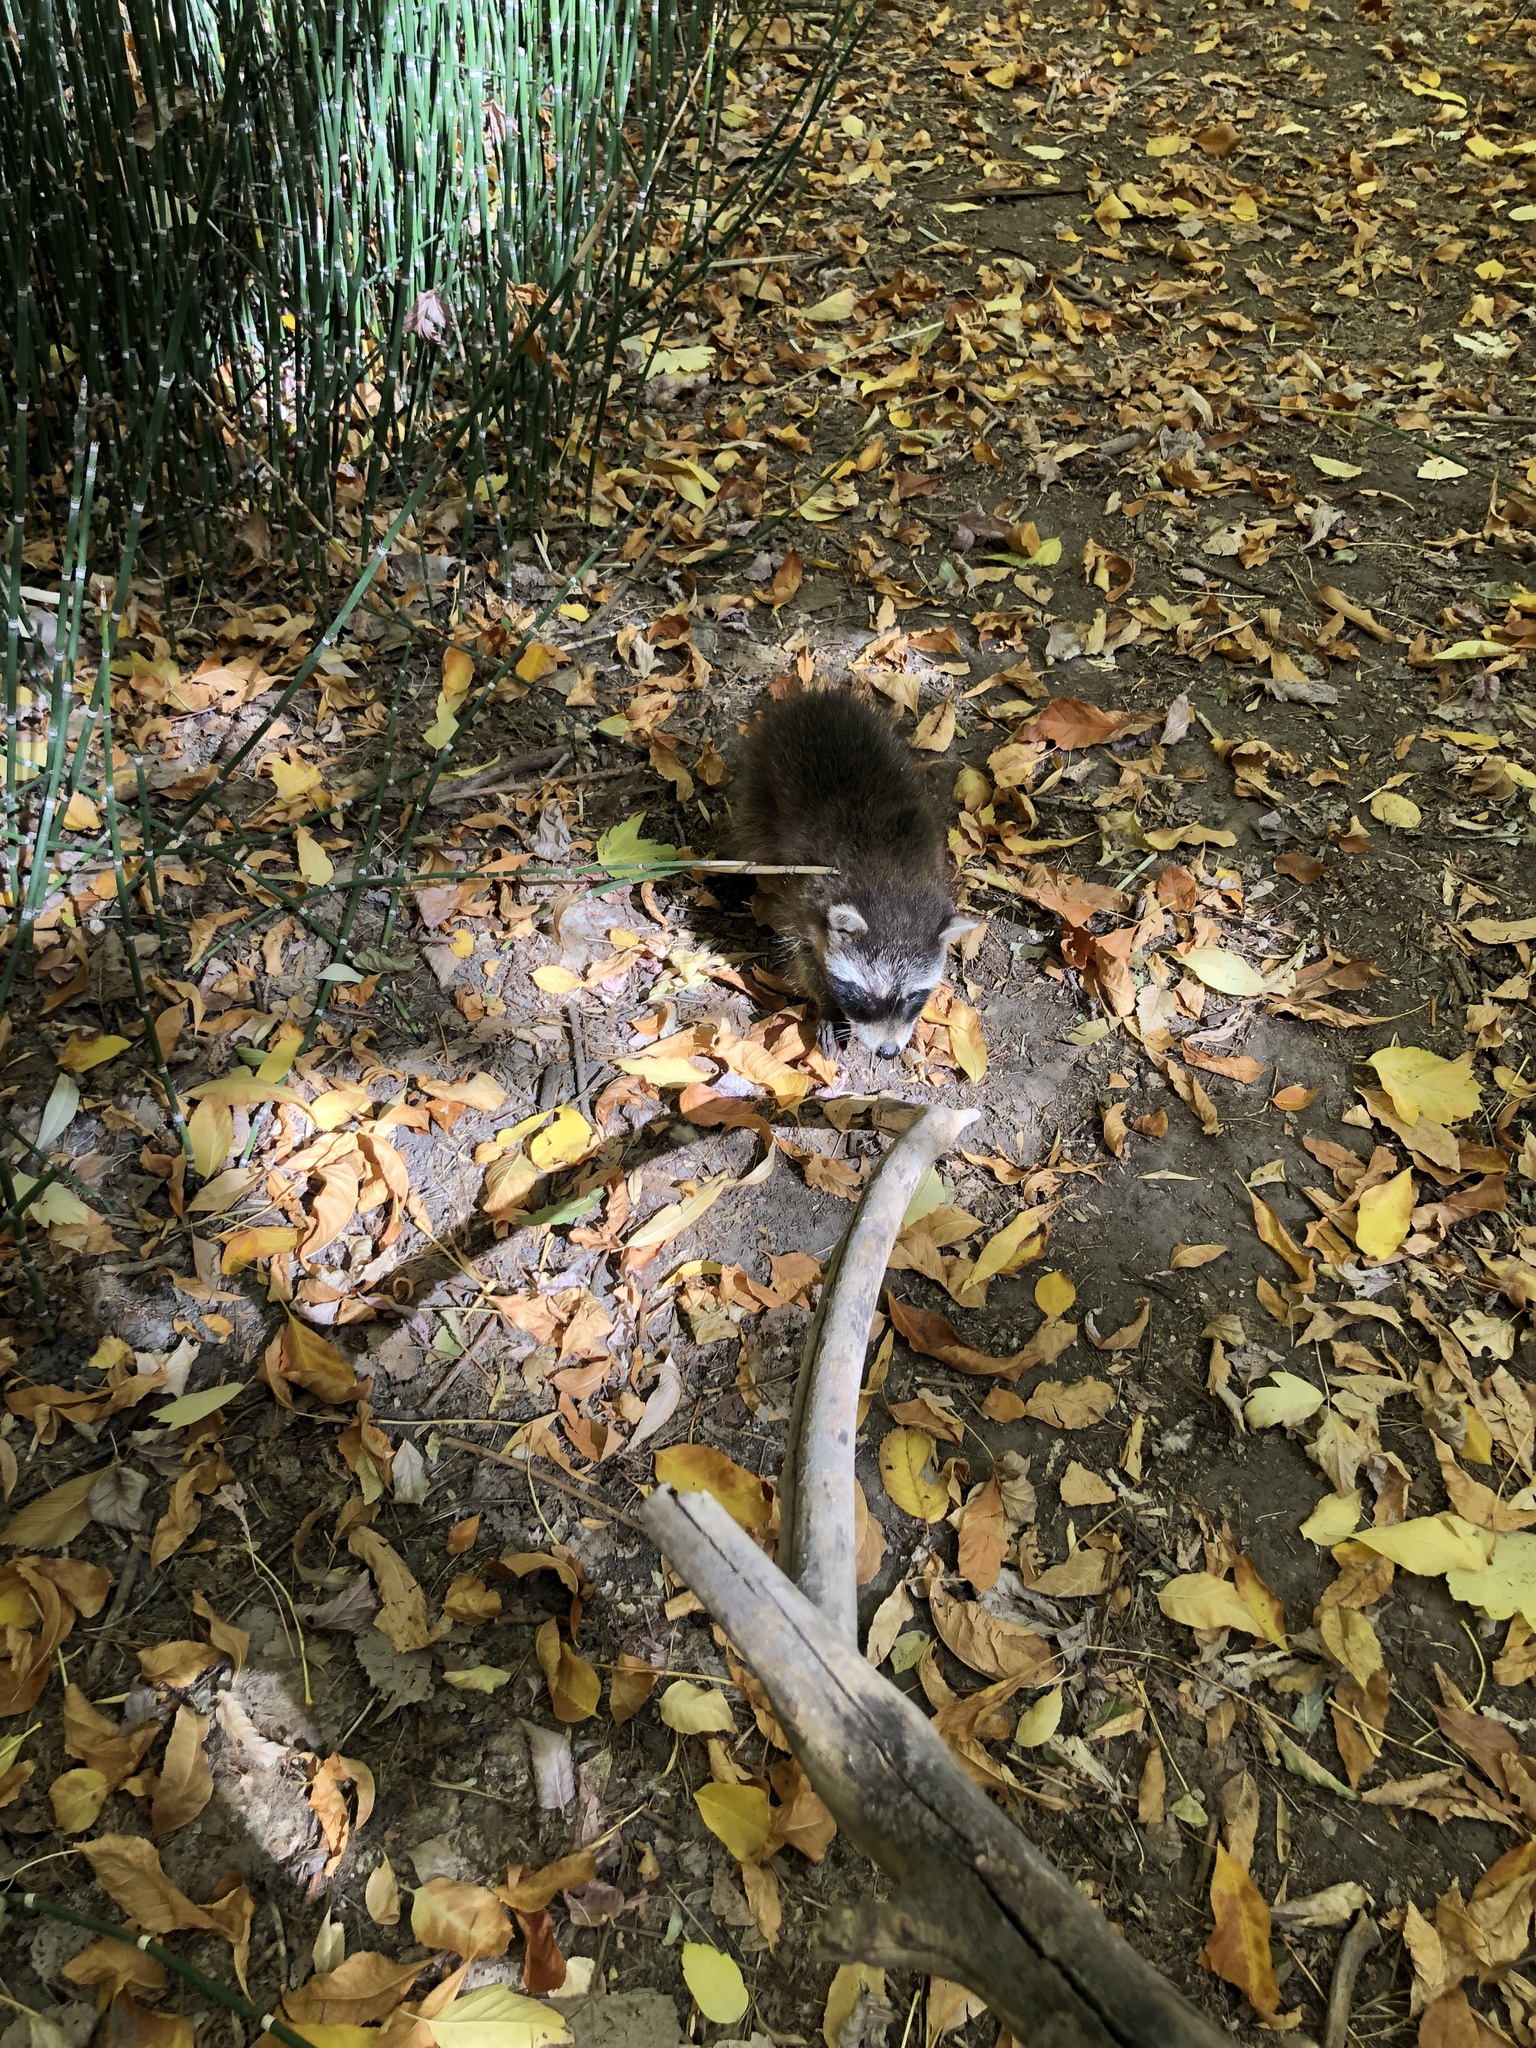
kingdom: Animalia
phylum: Chordata
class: Mammalia
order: Carnivora
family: Procyonidae
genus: Procyon
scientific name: Procyon lotor
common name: Raccoon
